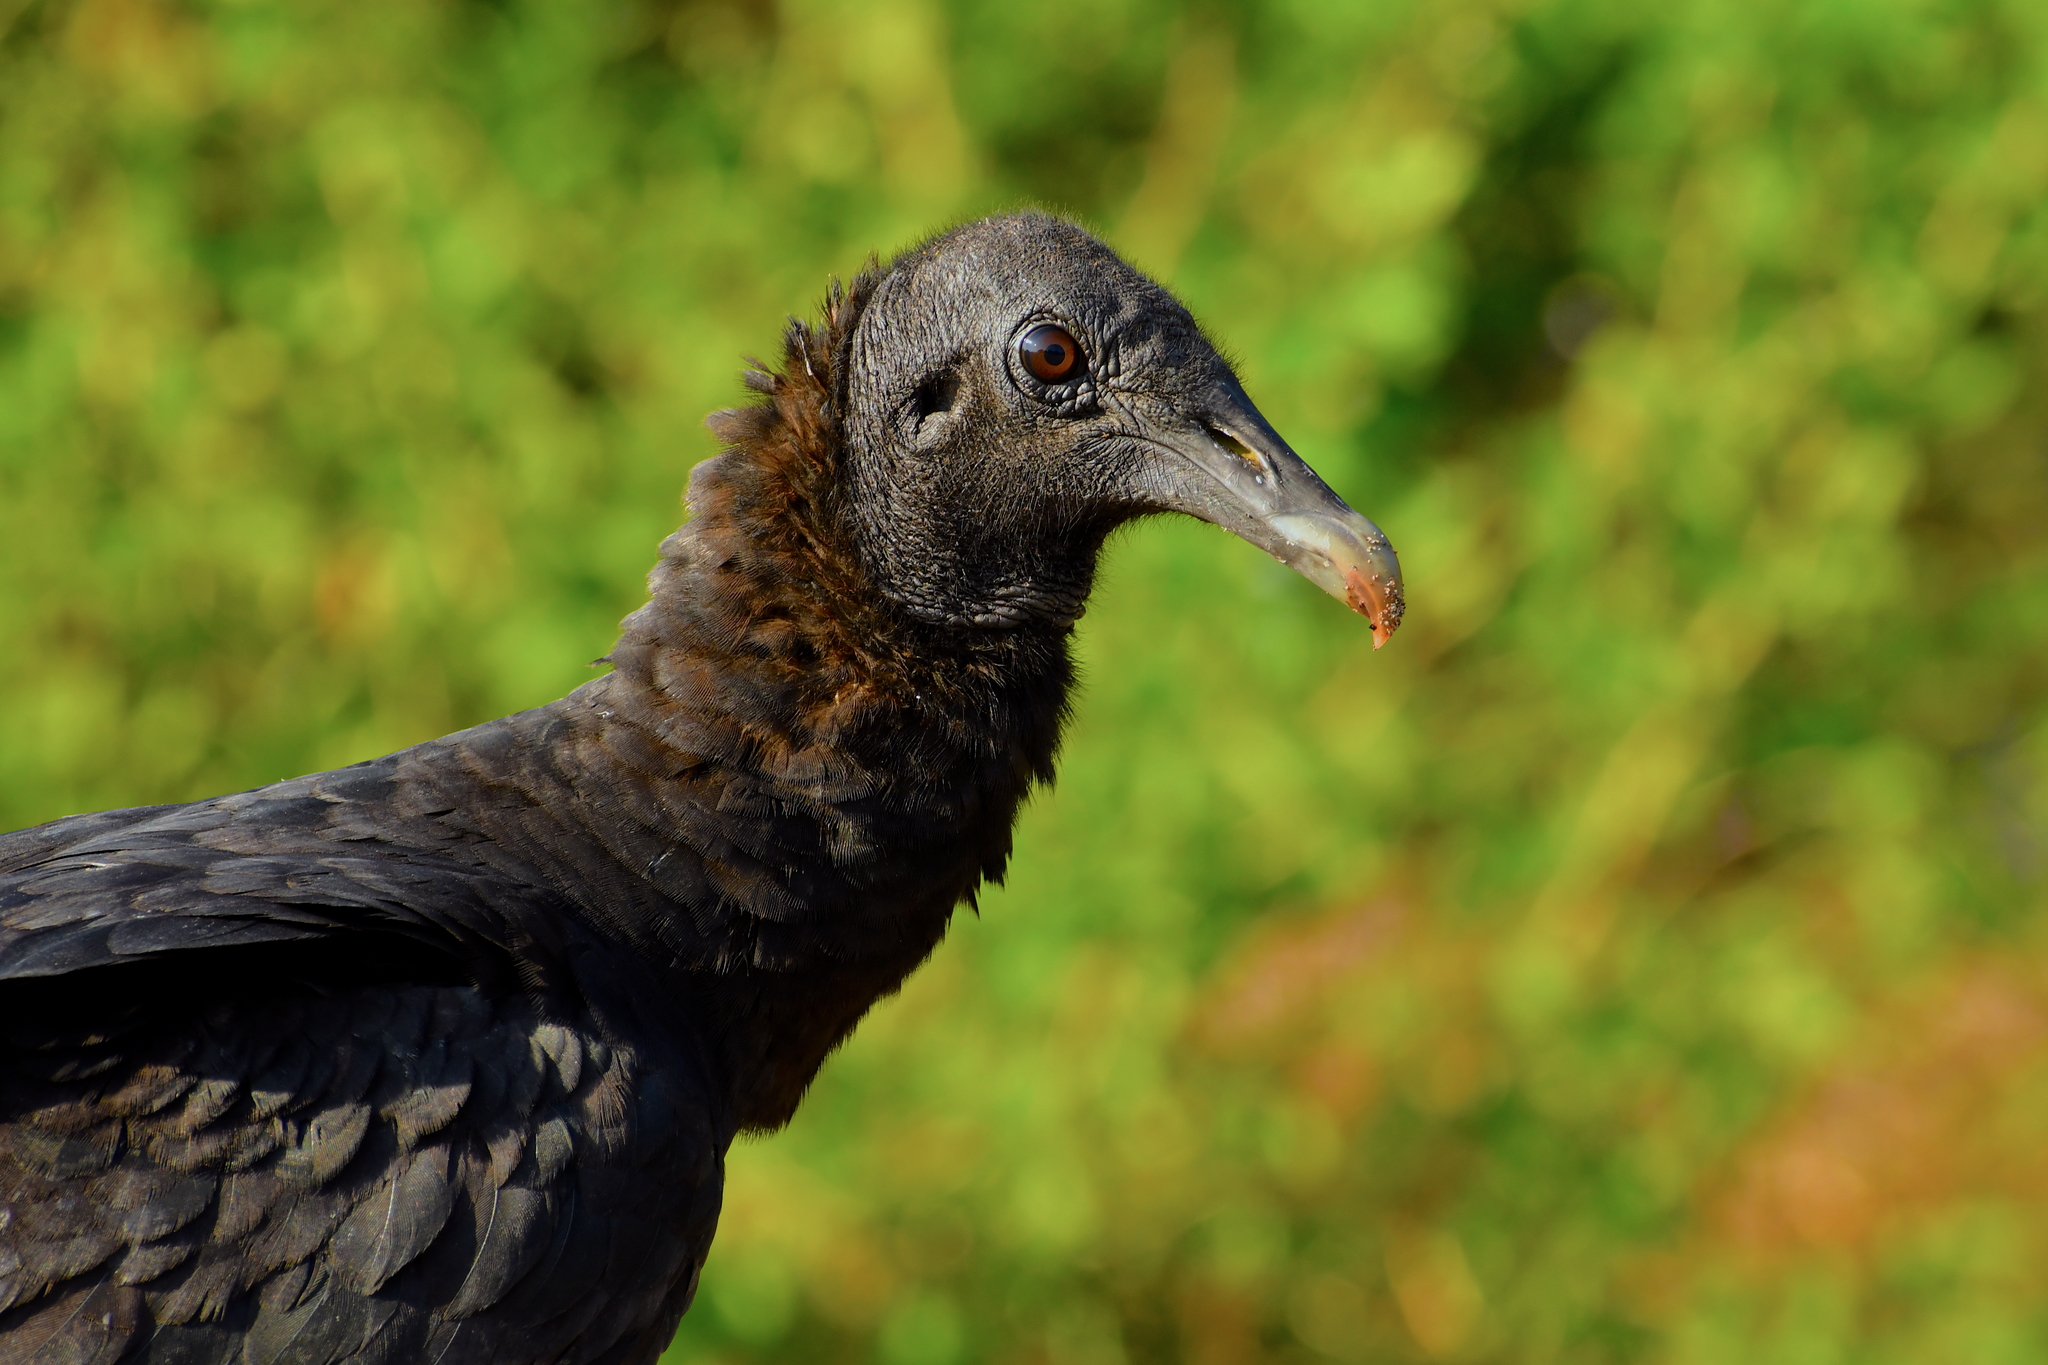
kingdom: Animalia
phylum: Chordata
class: Aves
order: Accipitriformes
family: Cathartidae
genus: Coragyps
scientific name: Coragyps atratus
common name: Black vulture
